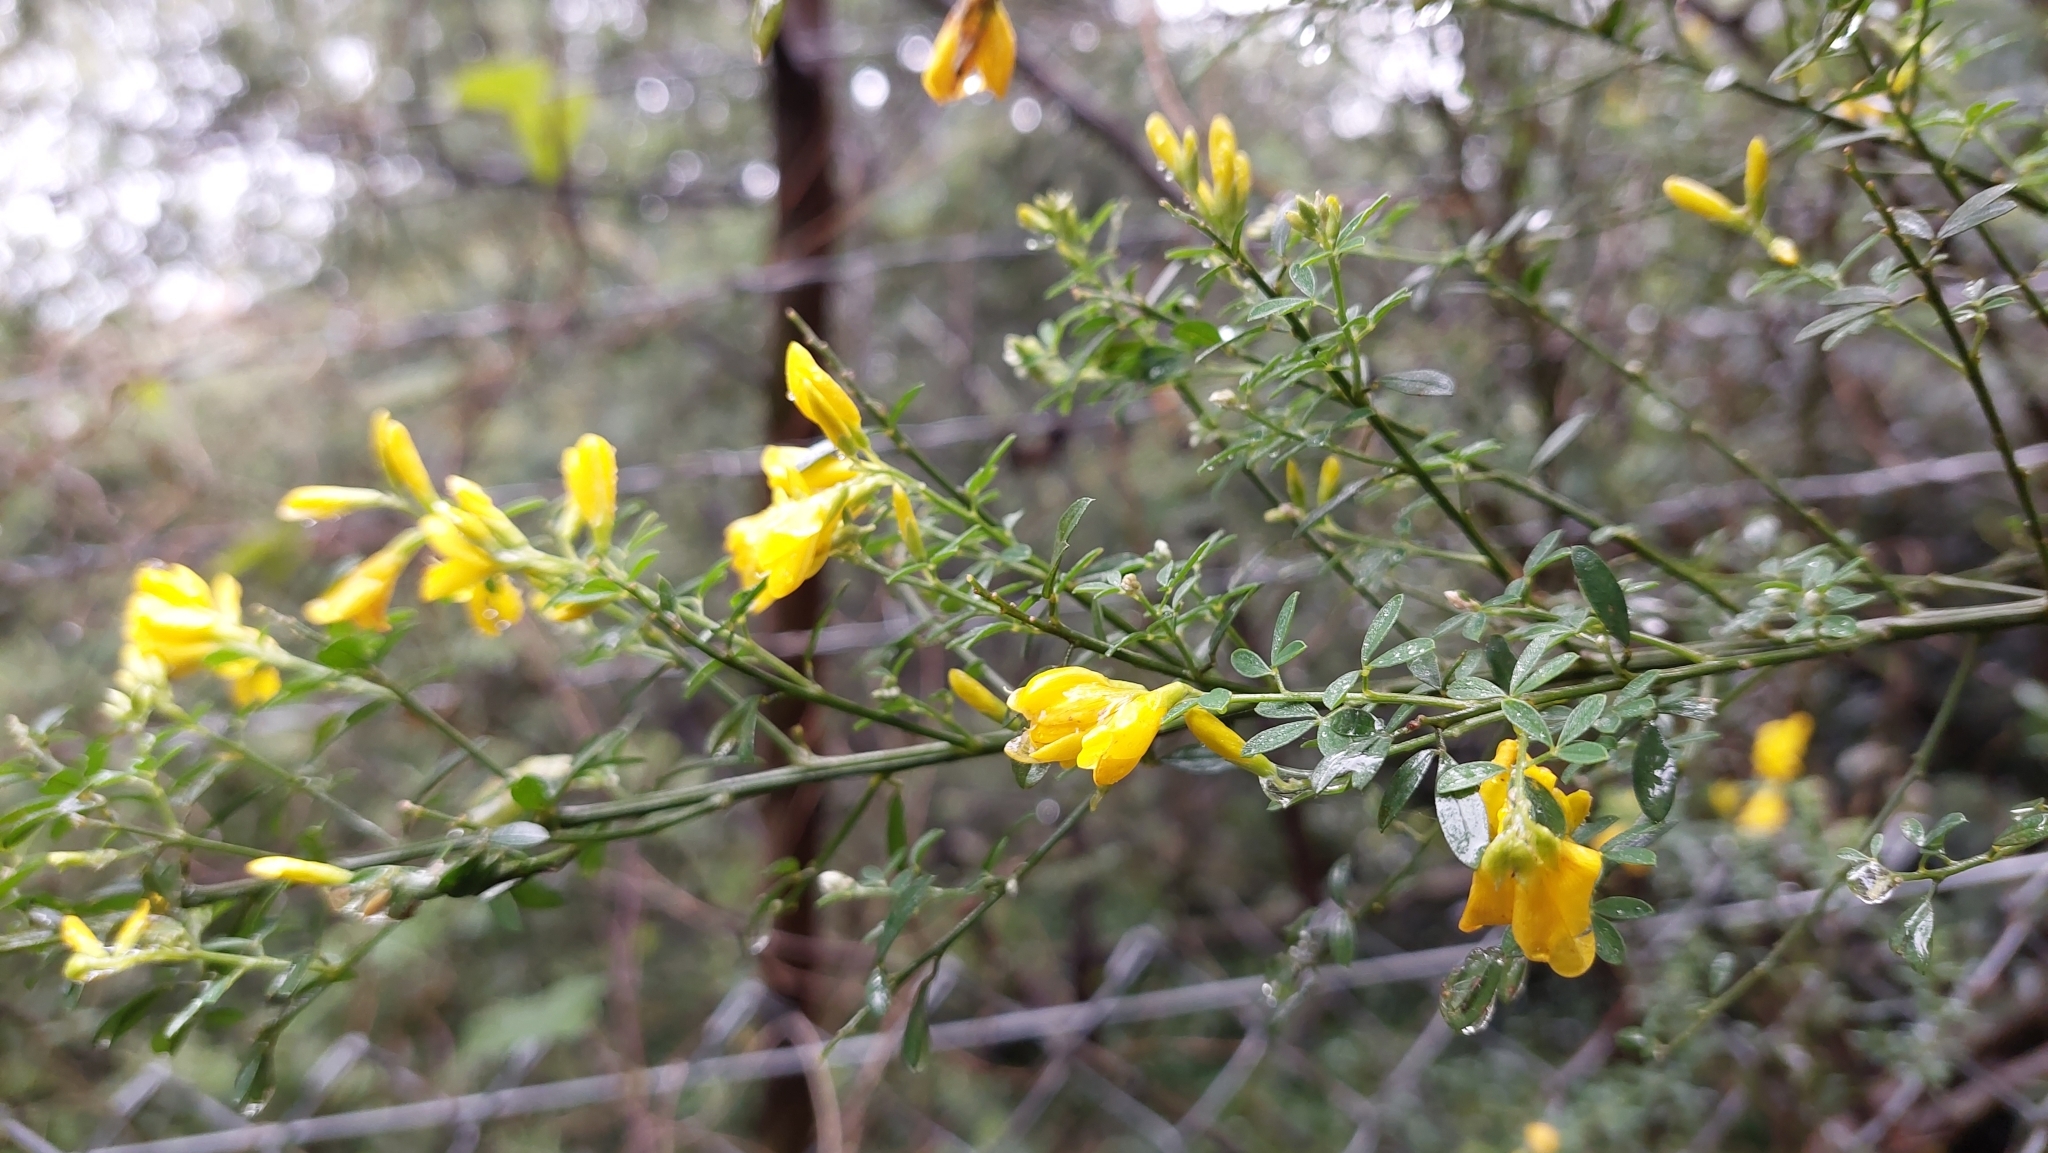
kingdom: Plantae
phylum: Tracheophyta
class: Magnoliopsida
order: Fabales
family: Fabaceae
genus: Genista
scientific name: Genista monspessulana
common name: Montpellier broom
